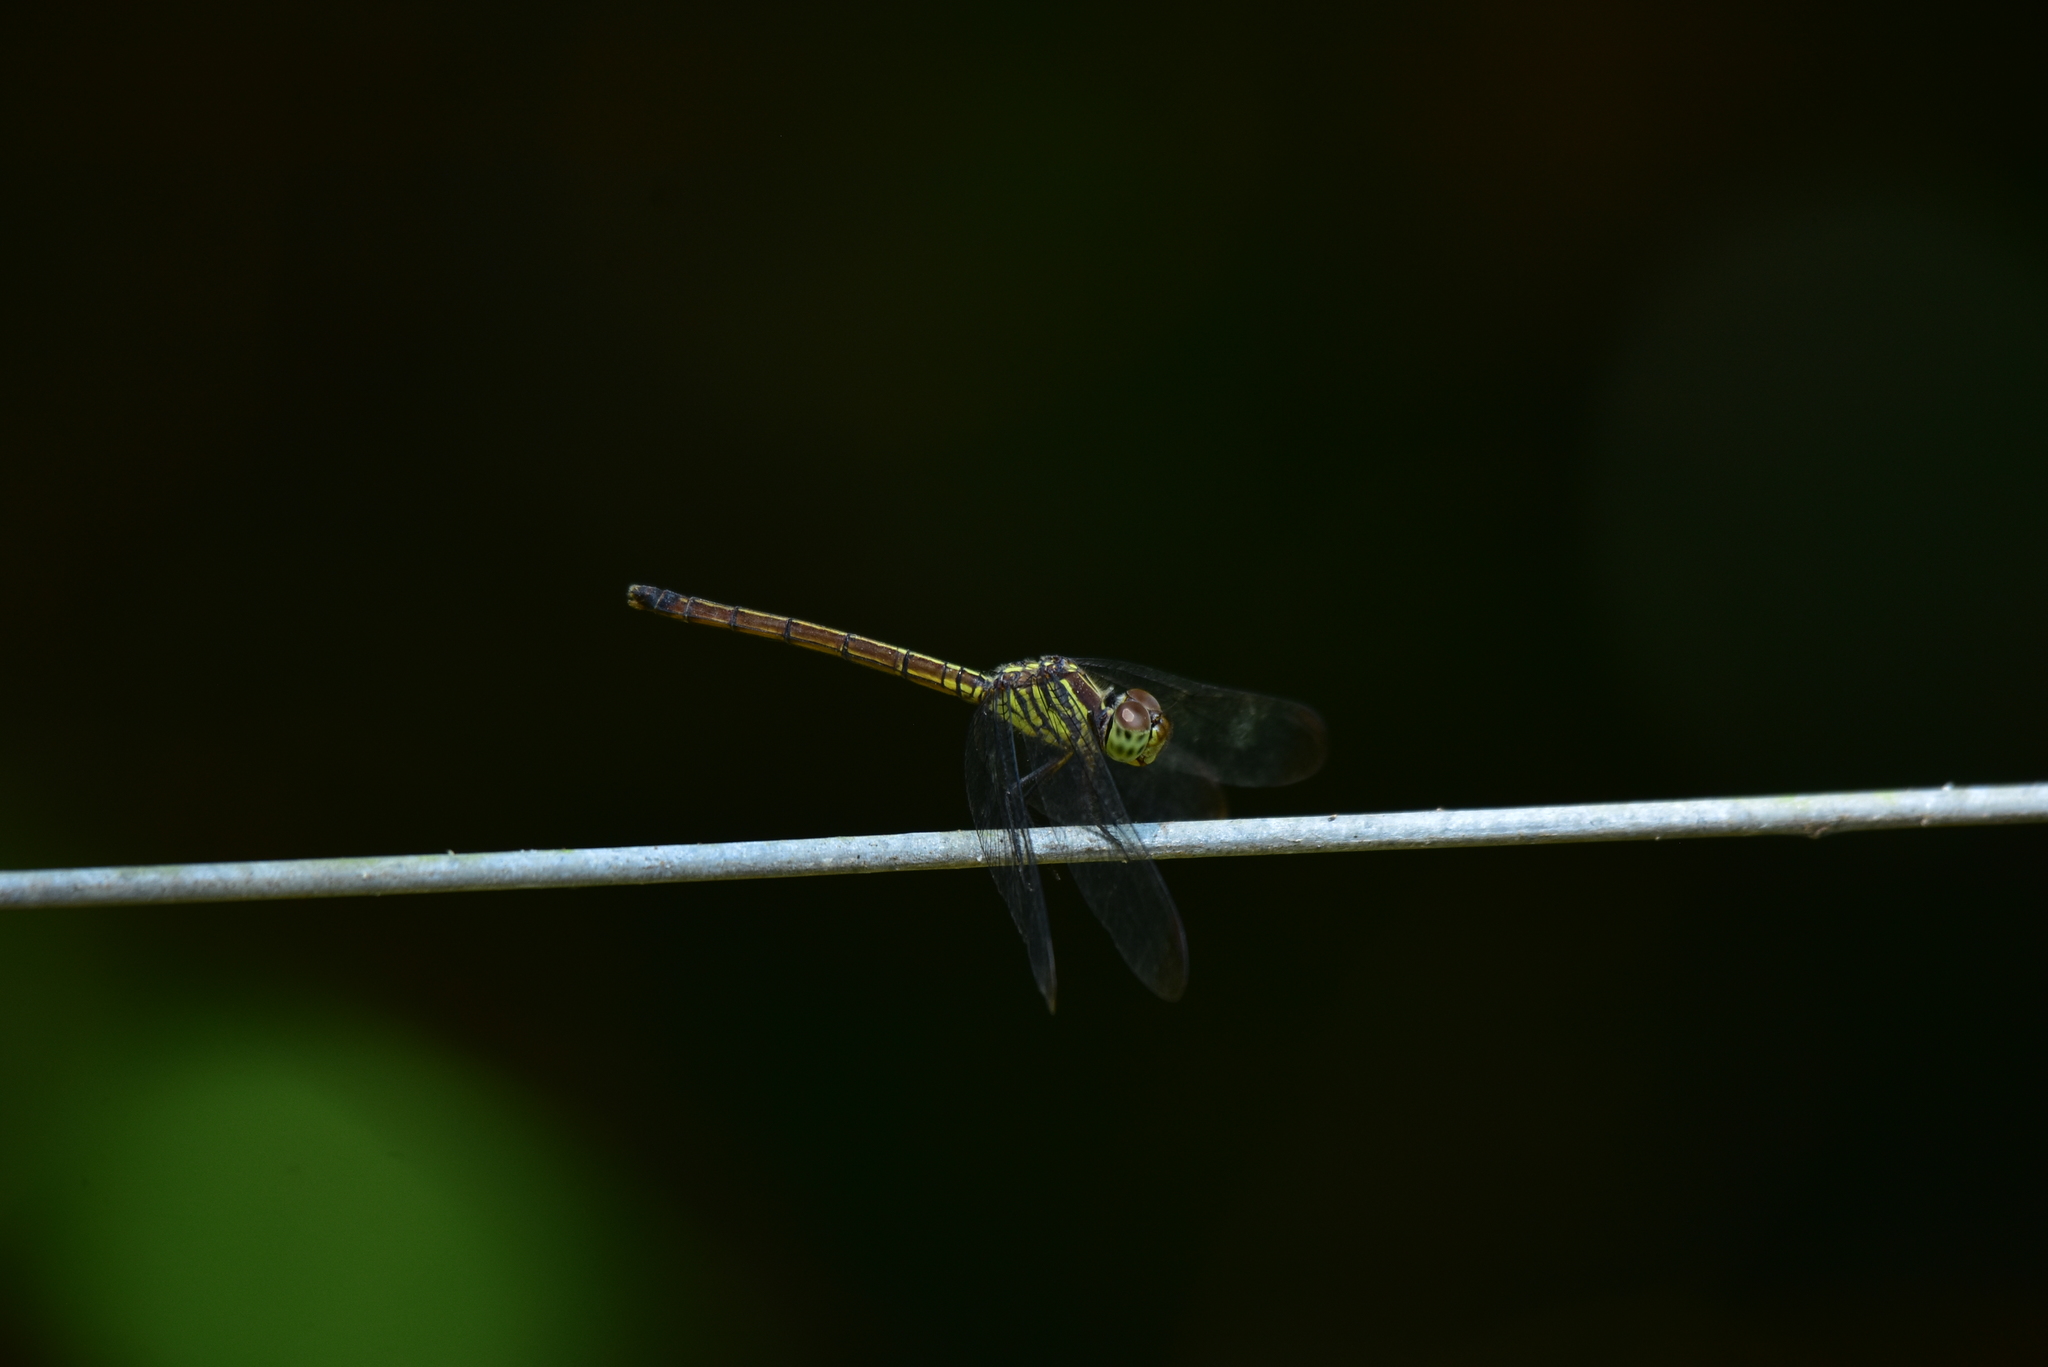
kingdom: Animalia
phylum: Arthropoda
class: Insecta
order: Odonata
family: Libellulidae
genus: Lathrecista
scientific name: Lathrecista asiatica
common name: Scarlet grenadier
